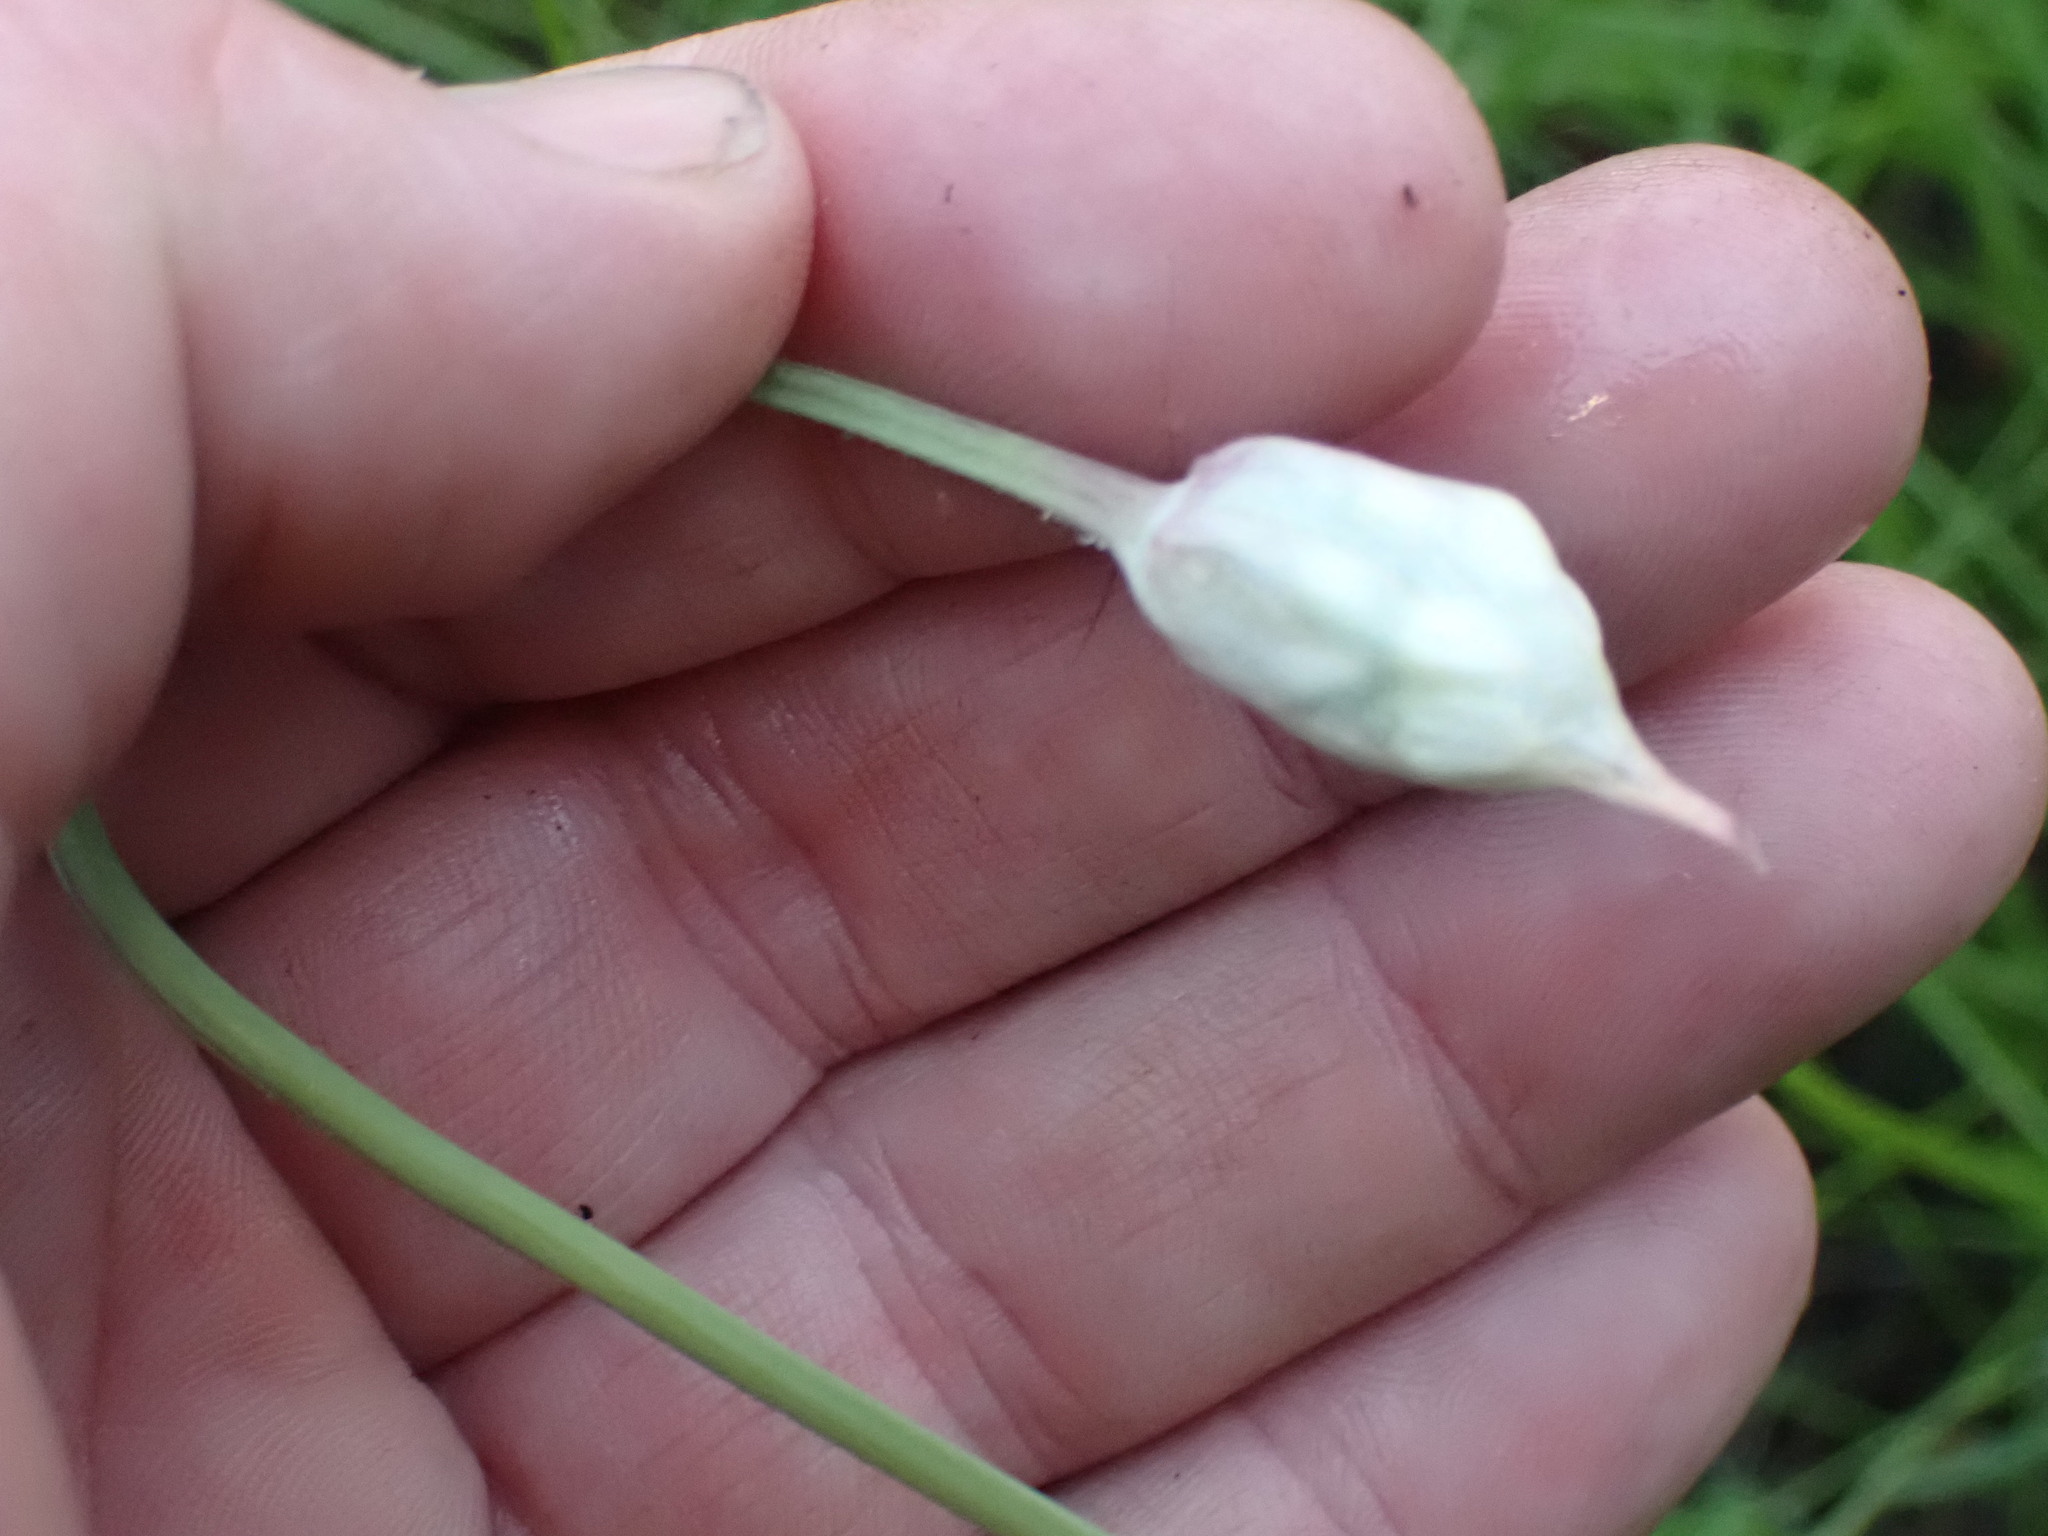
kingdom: Plantae
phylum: Tracheophyta
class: Liliopsida
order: Asparagales
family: Amaryllidaceae
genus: Allium
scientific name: Allium cernuum
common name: Nodding onion
